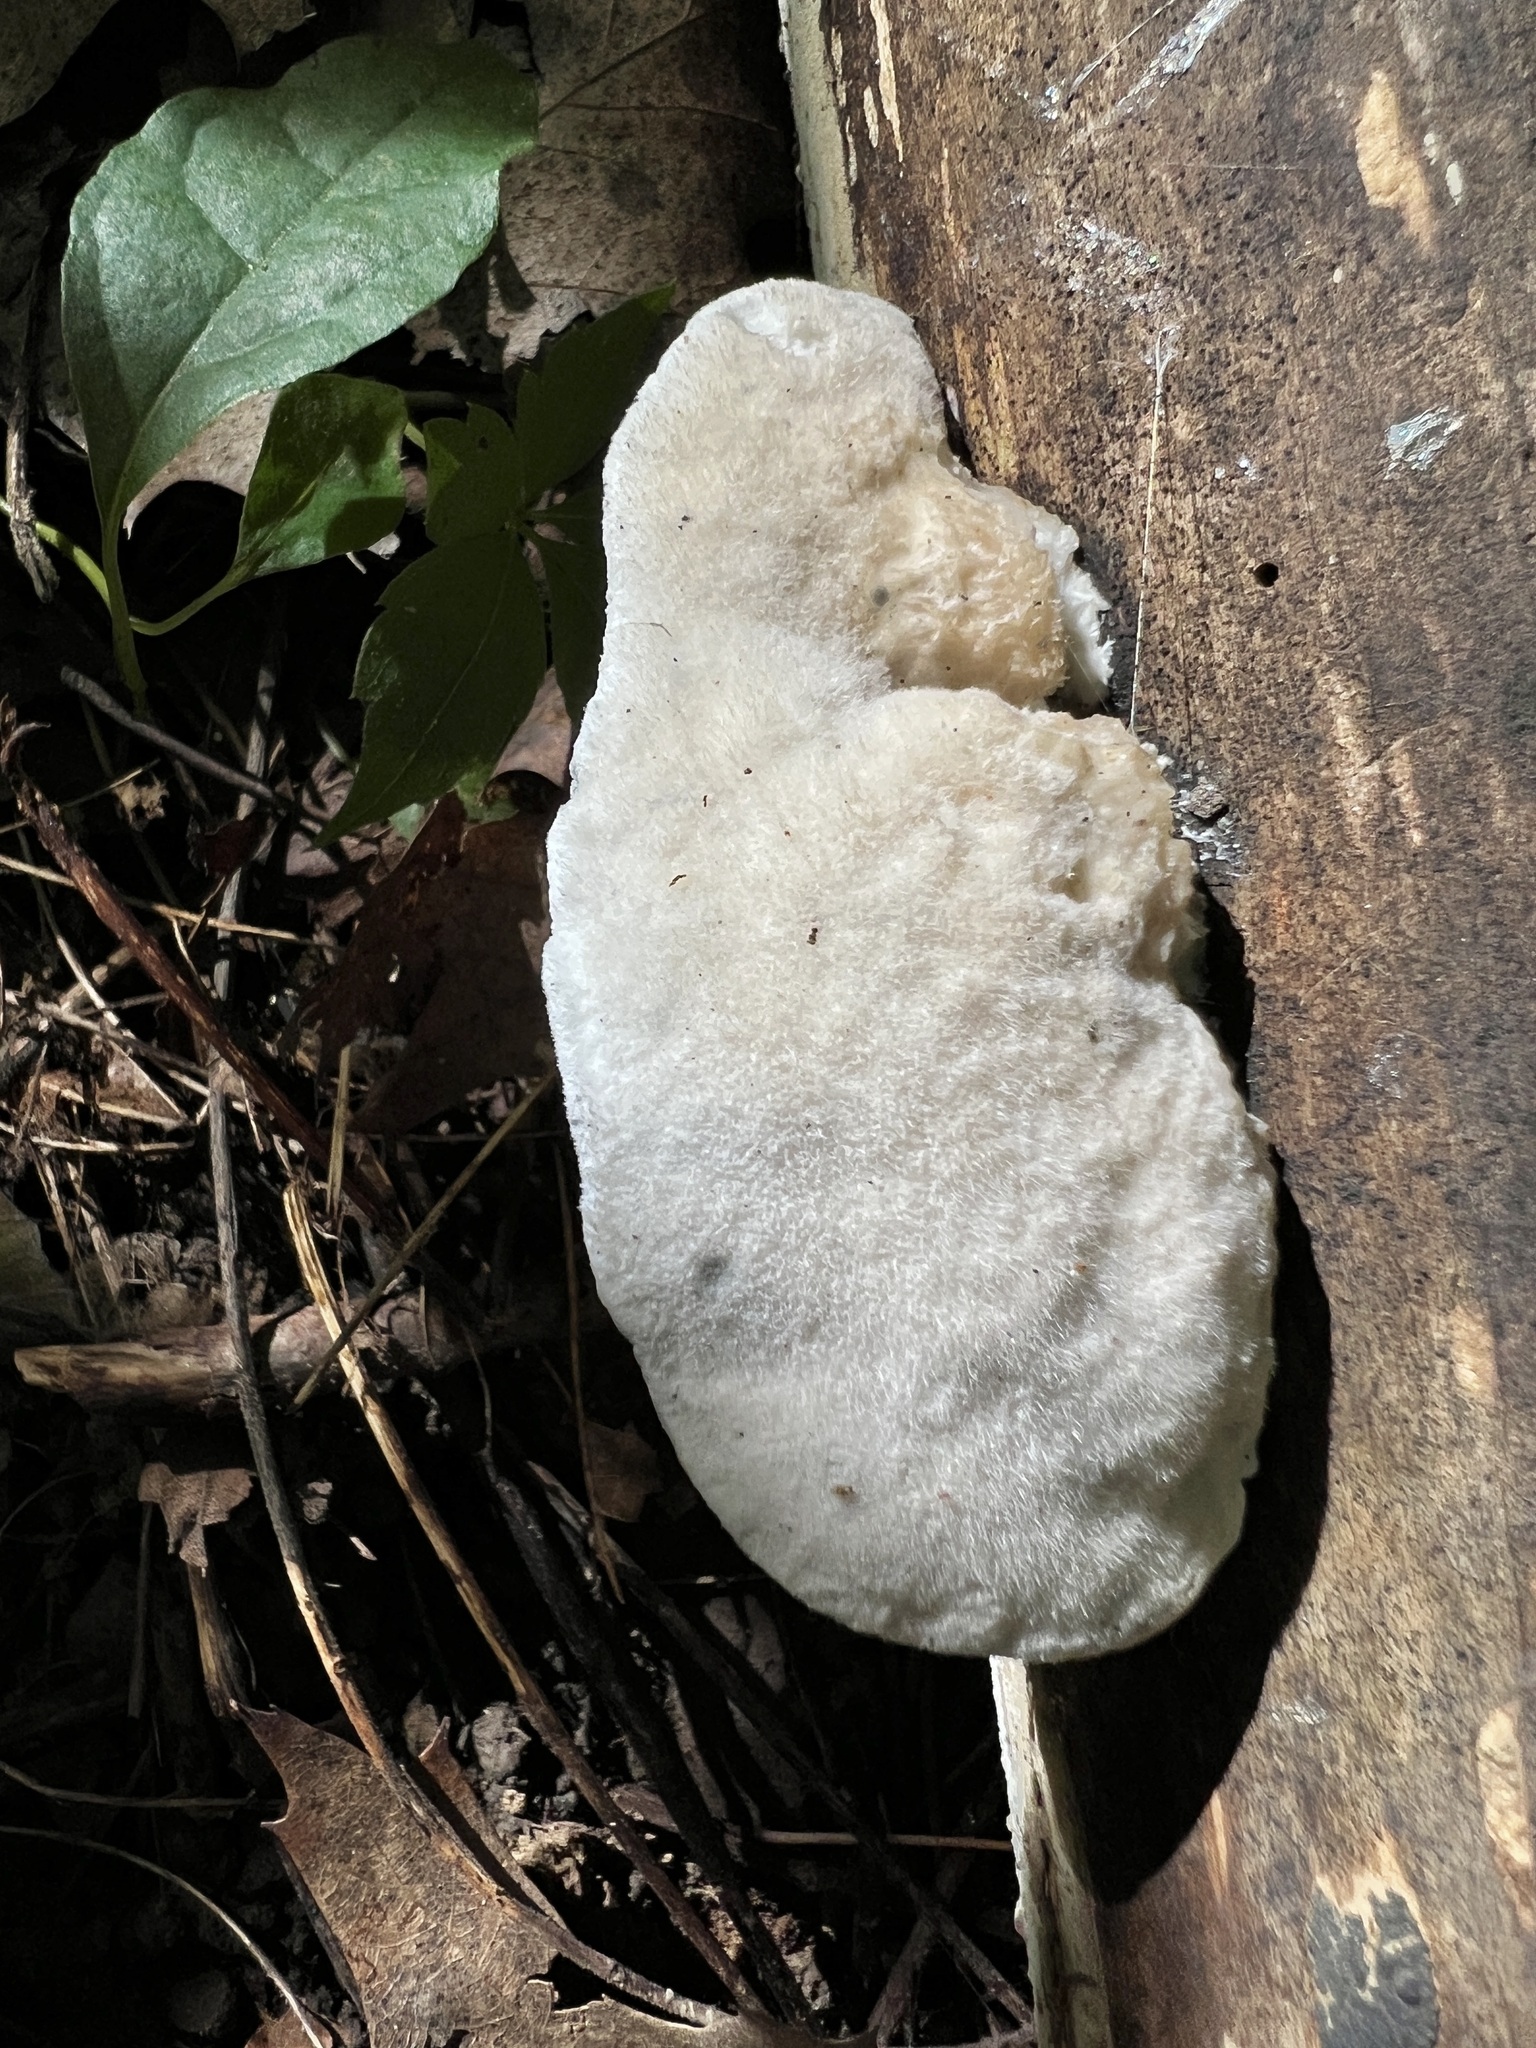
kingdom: Fungi
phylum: Basidiomycota
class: Agaricomycetes
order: Polyporales
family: Polyporaceae
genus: Cyanosporus
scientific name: Cyanosporus caesius
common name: Blue cheese polypore
